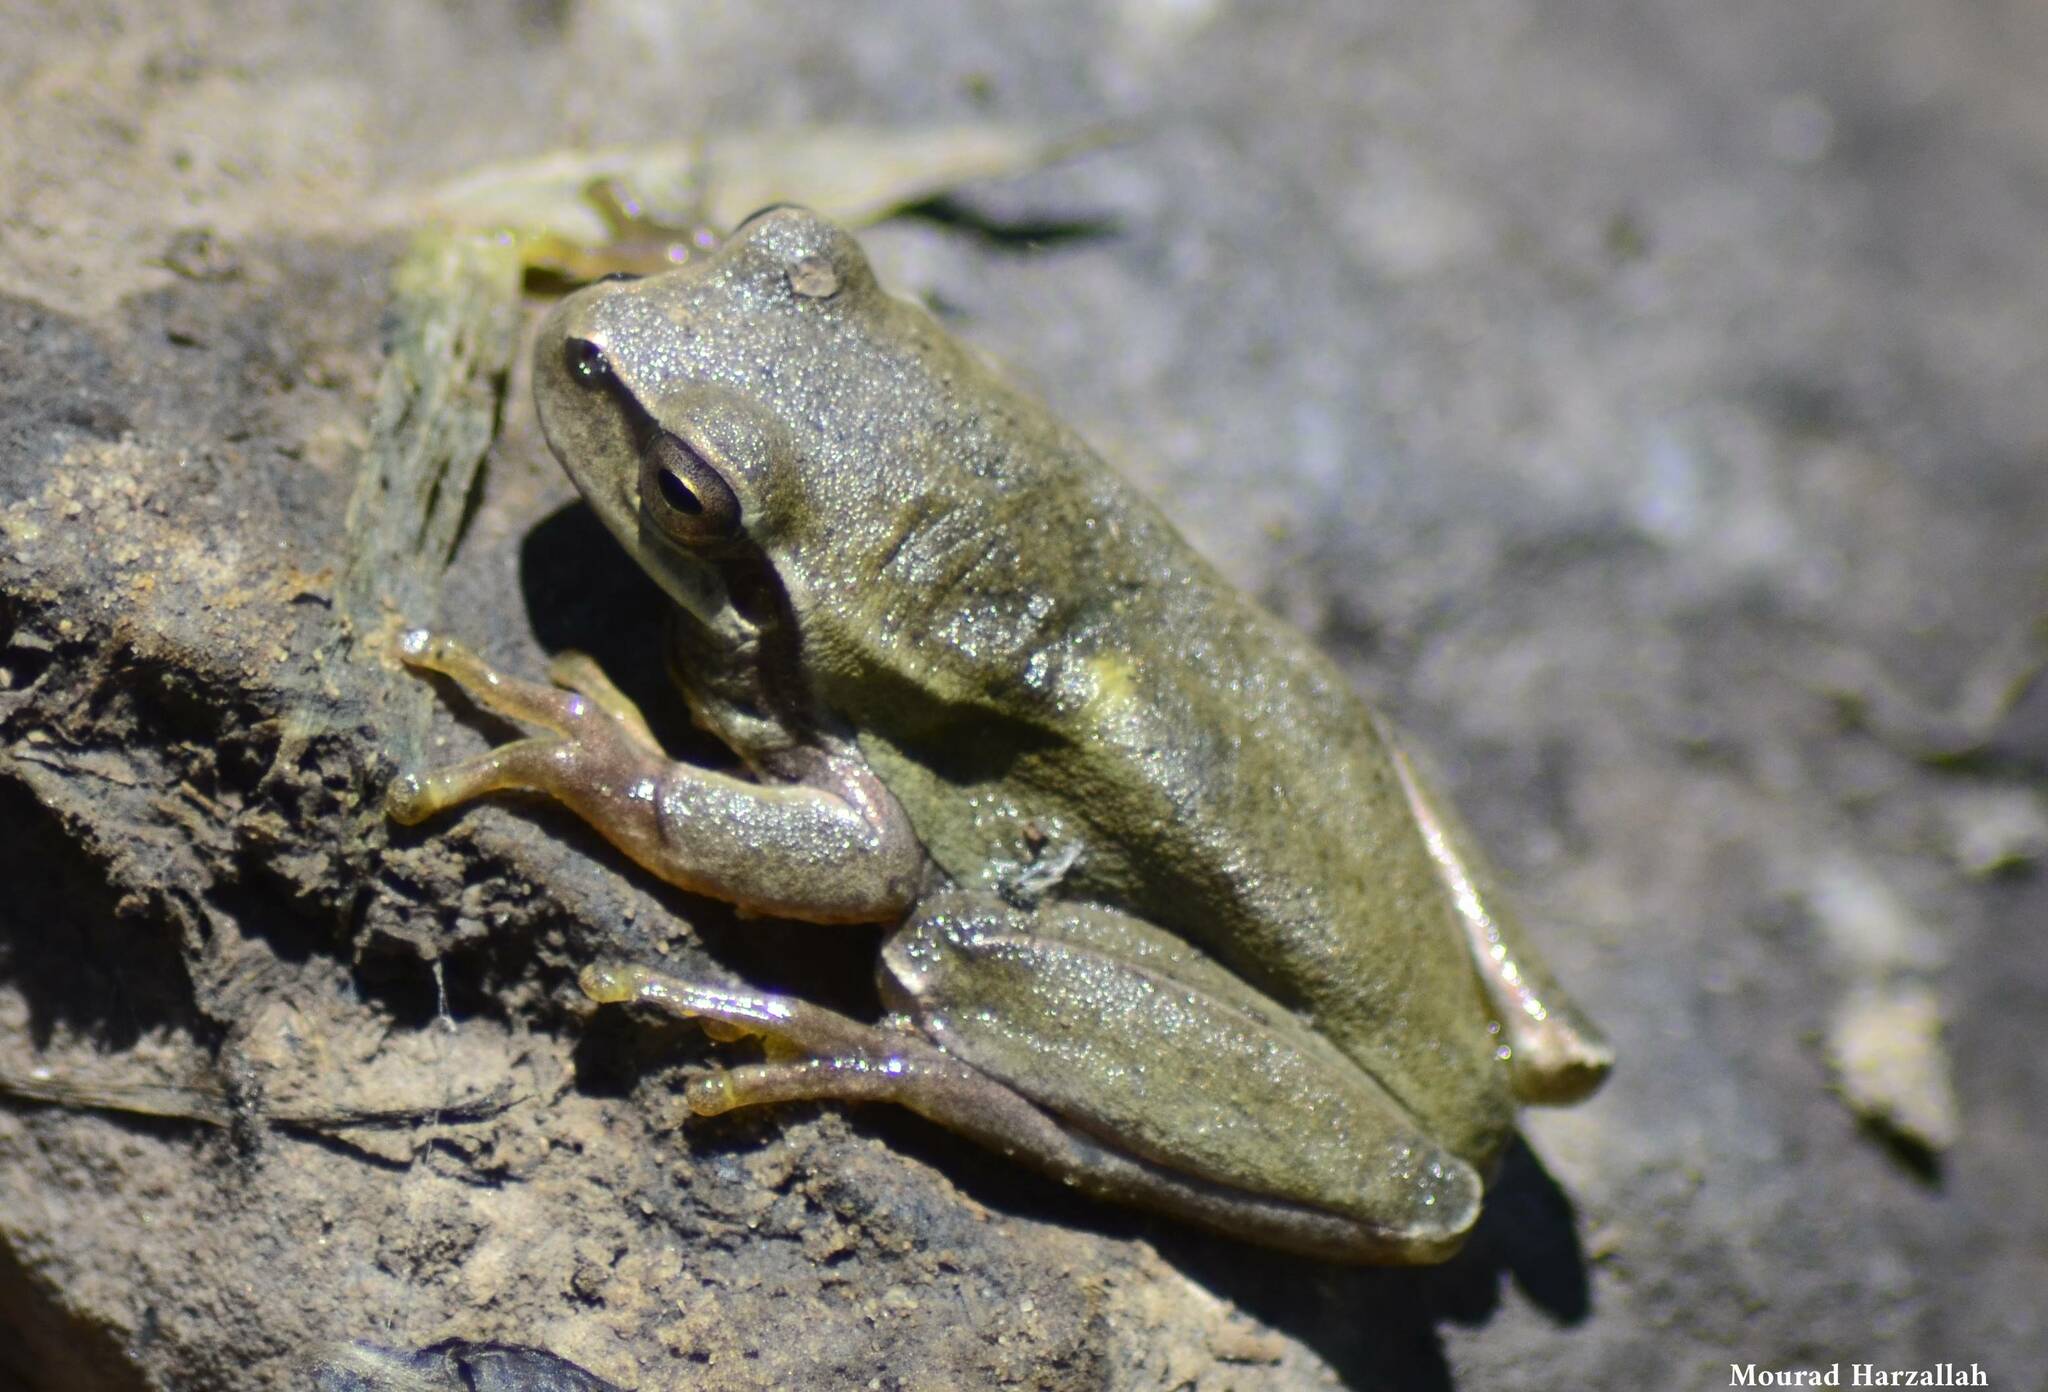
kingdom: Animalia
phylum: Chordata
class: Amphibia
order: Anura
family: Hylidae
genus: Hyla
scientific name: Hyla meridionalis
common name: Stripeless tree frog
